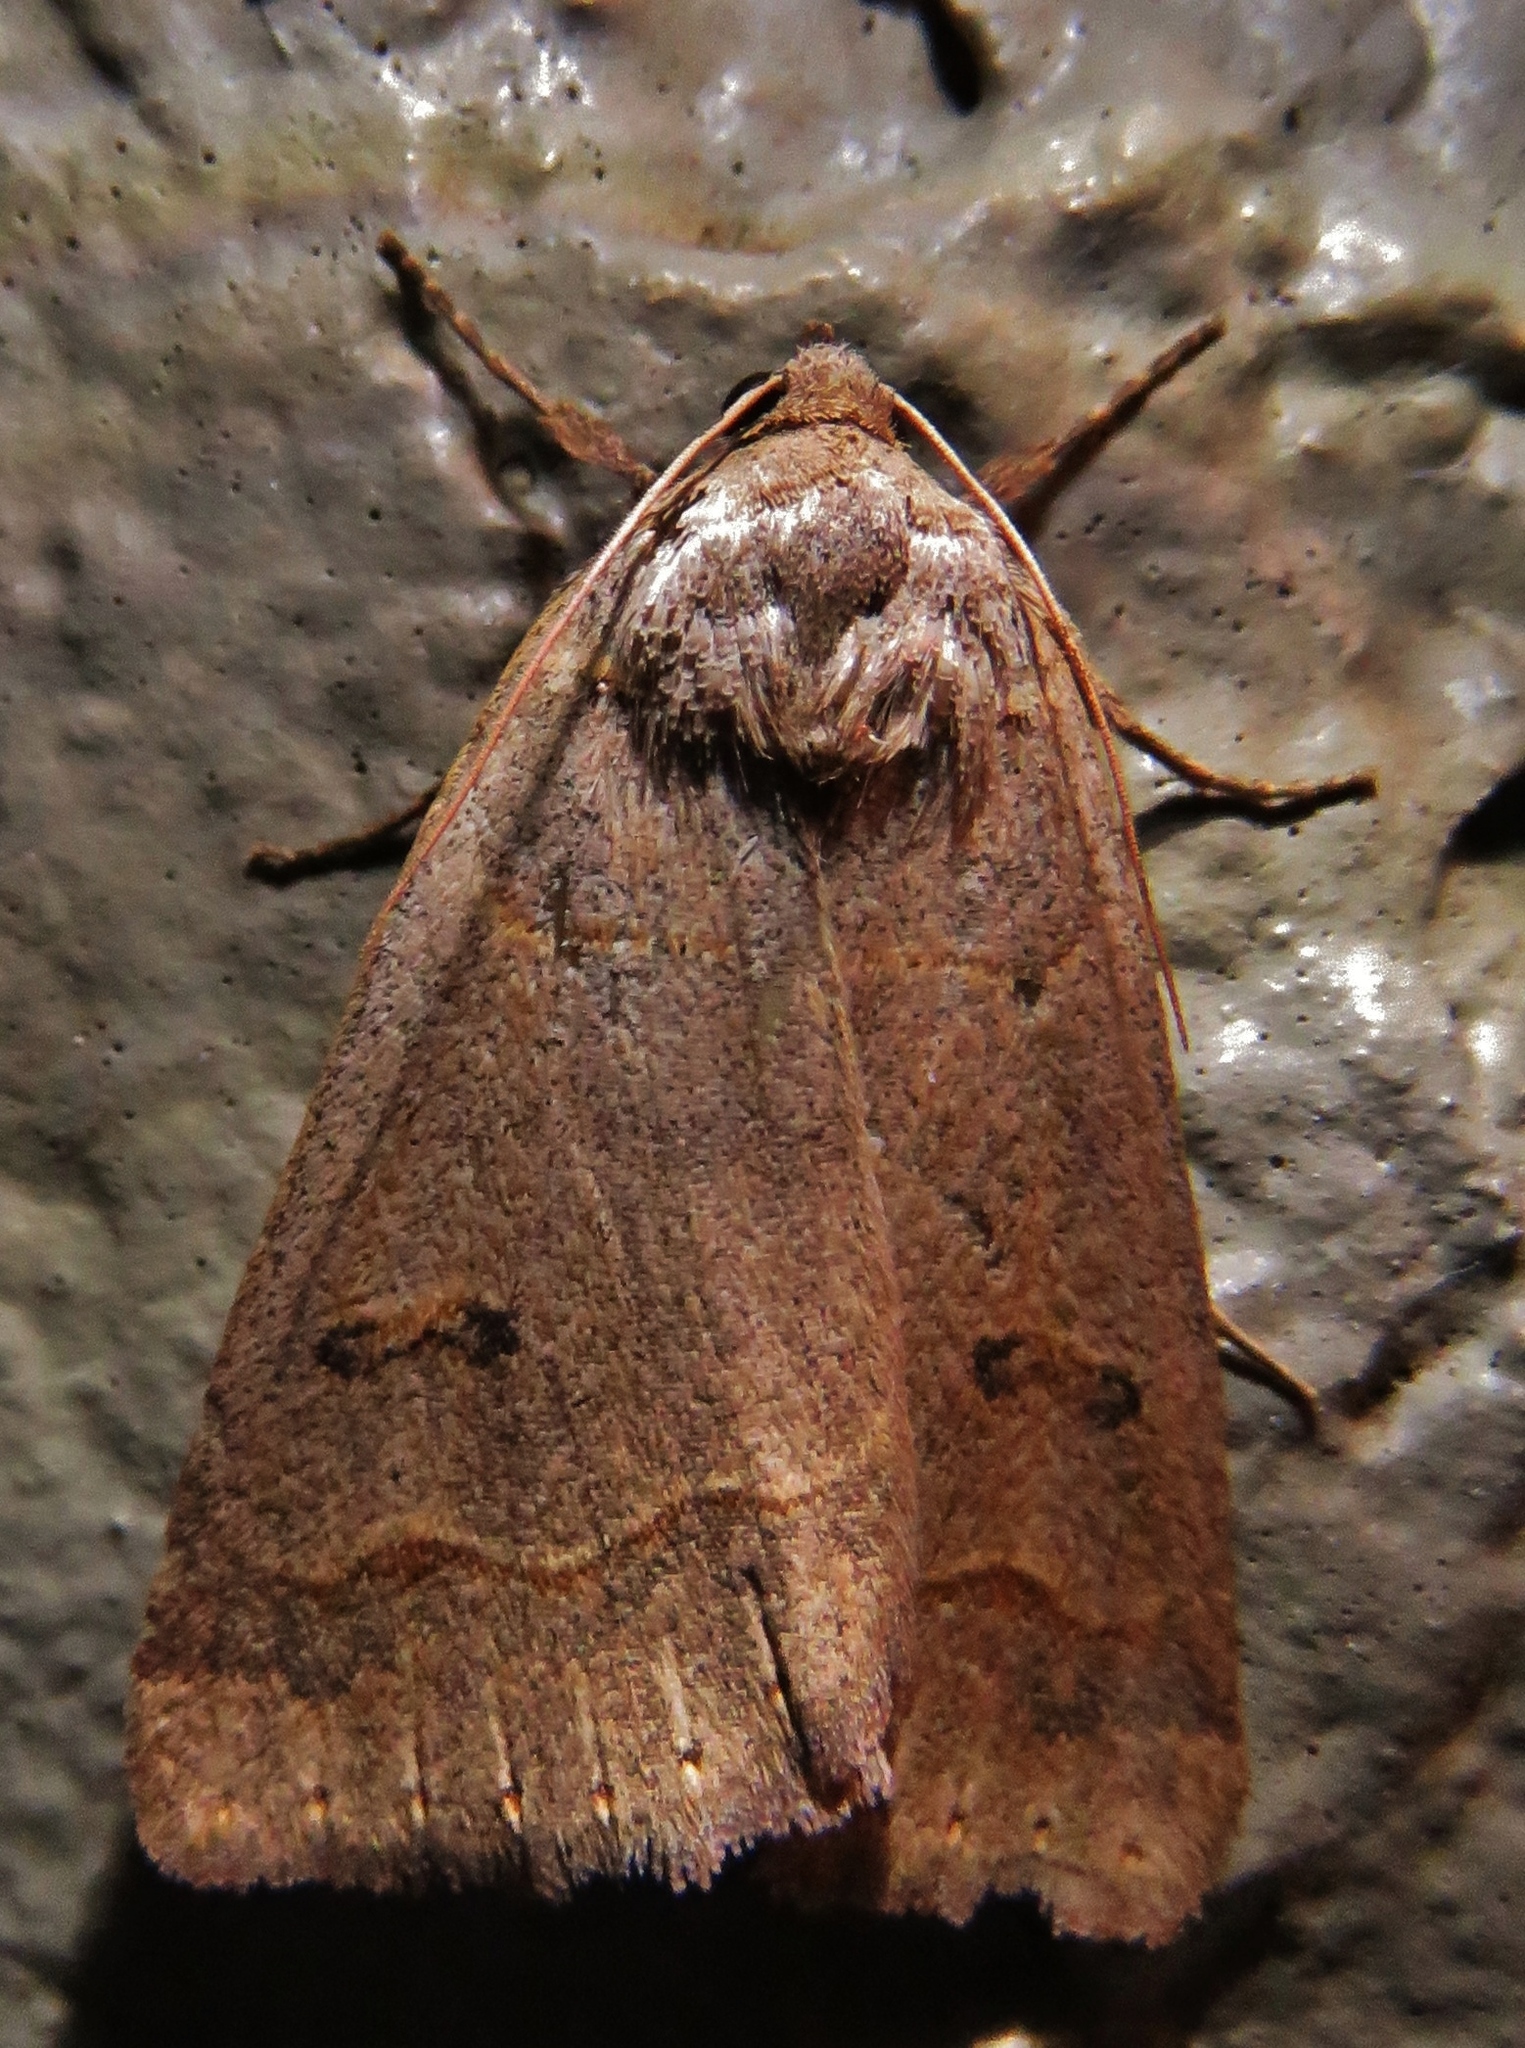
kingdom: Animalia
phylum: Arthropoda
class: Insecta
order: Lepidoptera
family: Erebidae
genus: Phoberia
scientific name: Phoberia atomaris
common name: Common oak moth
